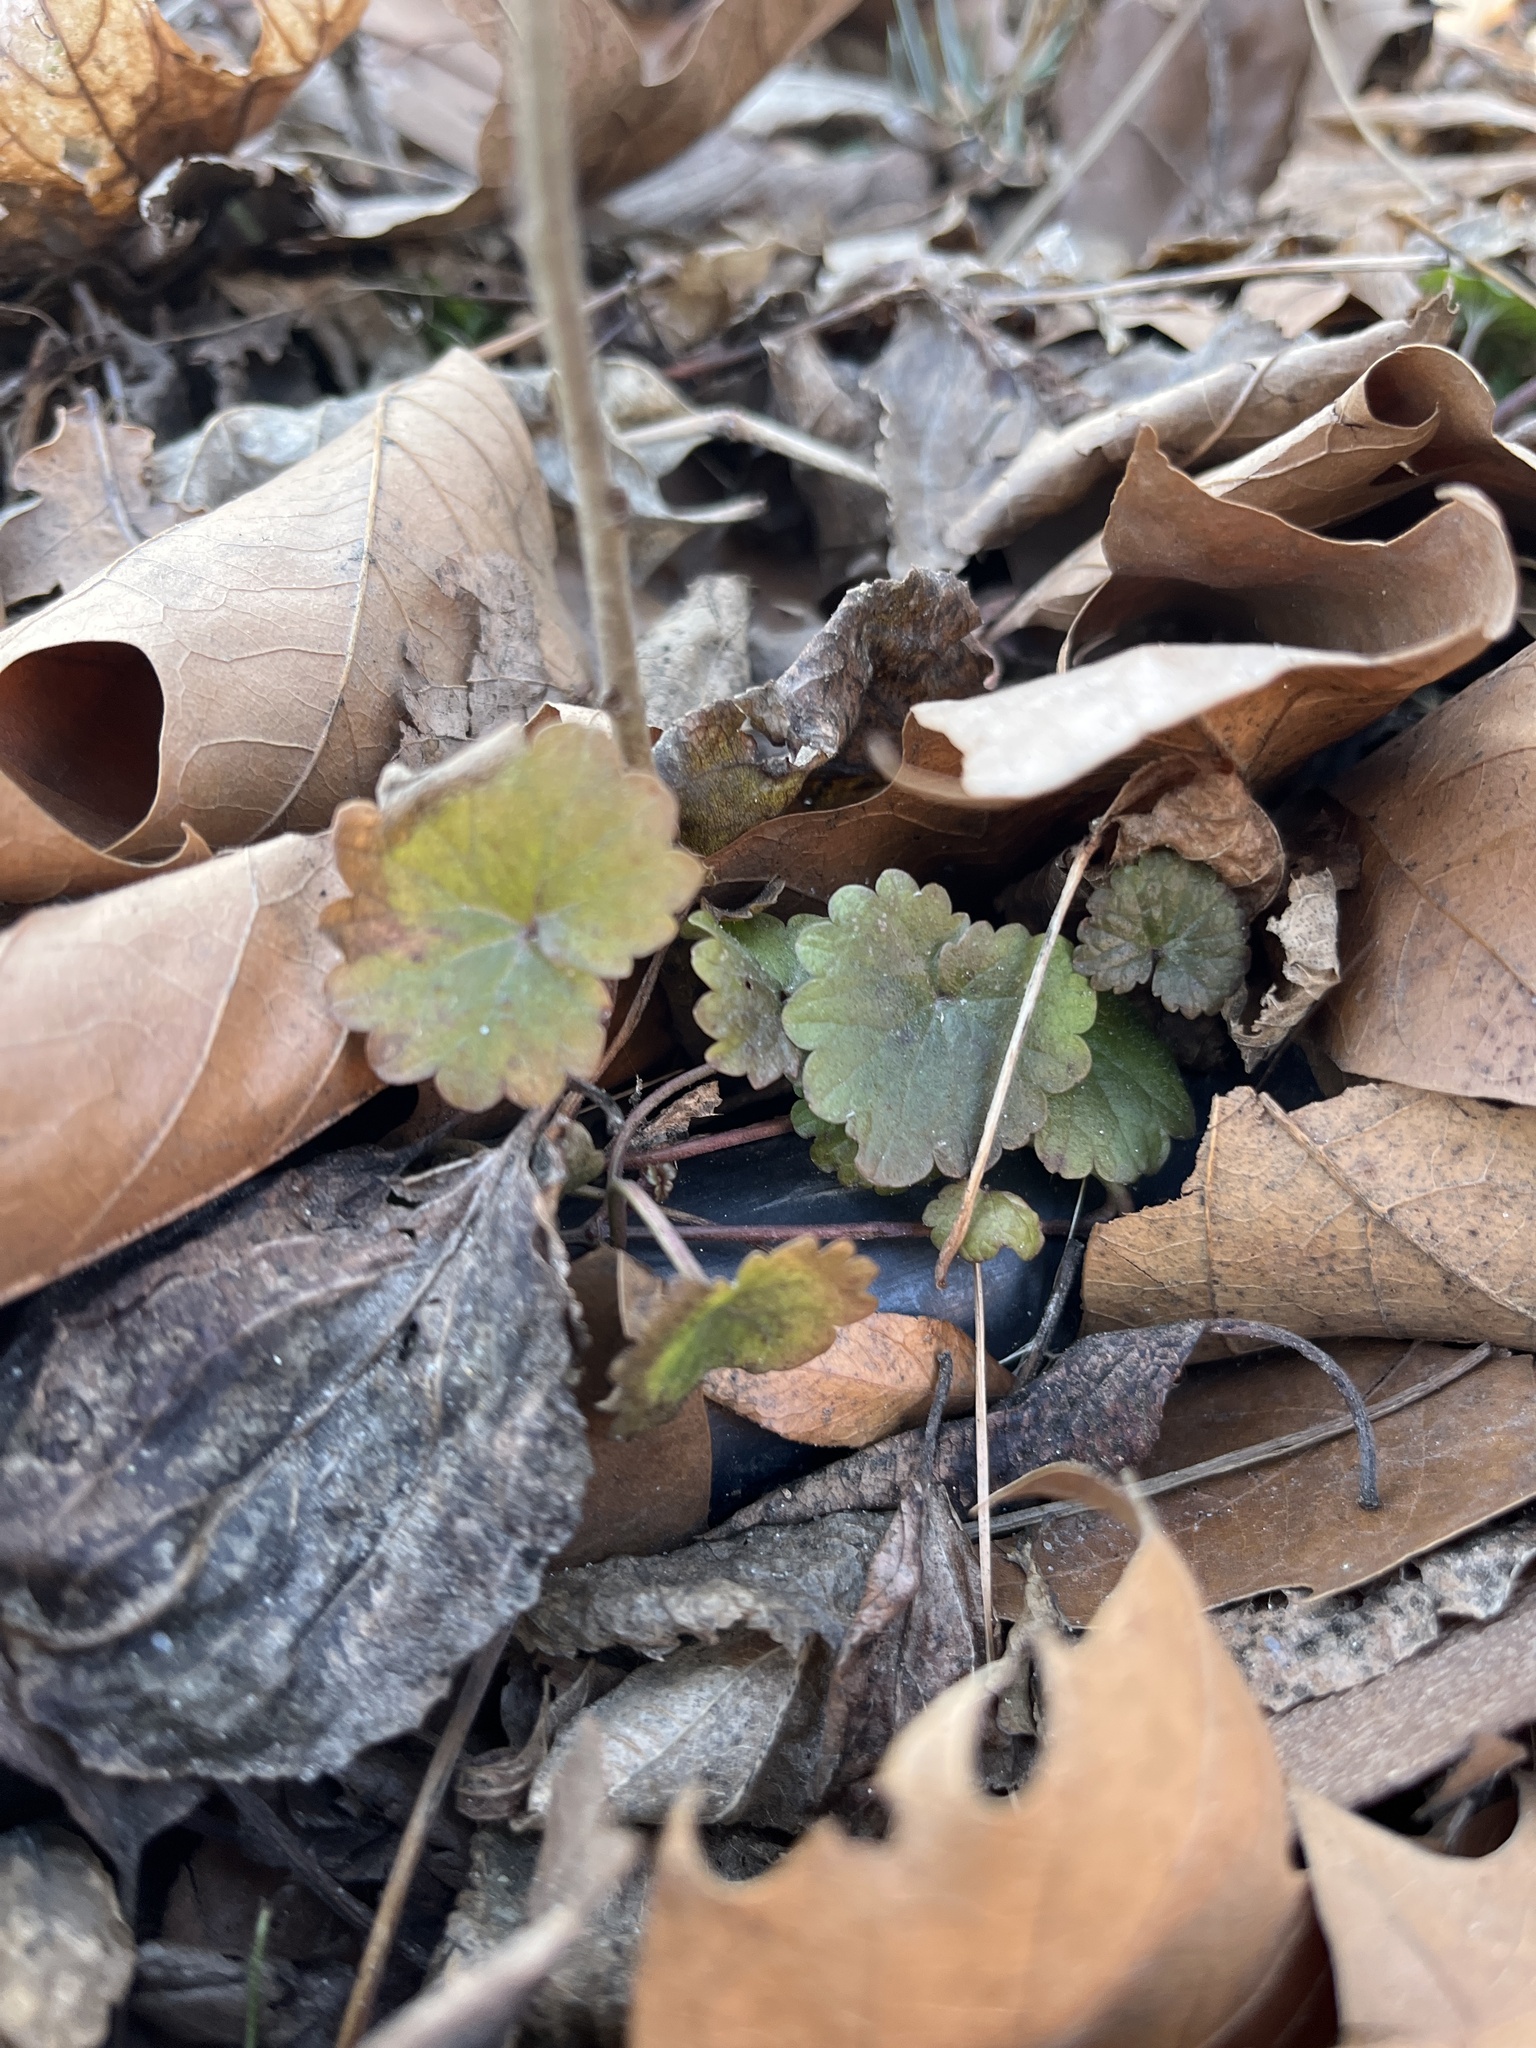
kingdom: Plantae
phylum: Tracheophyta
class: Magnoliopsida
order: Lamiales
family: Lamiaceae
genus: Glechoma
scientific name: Glechoma hederacea
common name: Ground ivy
